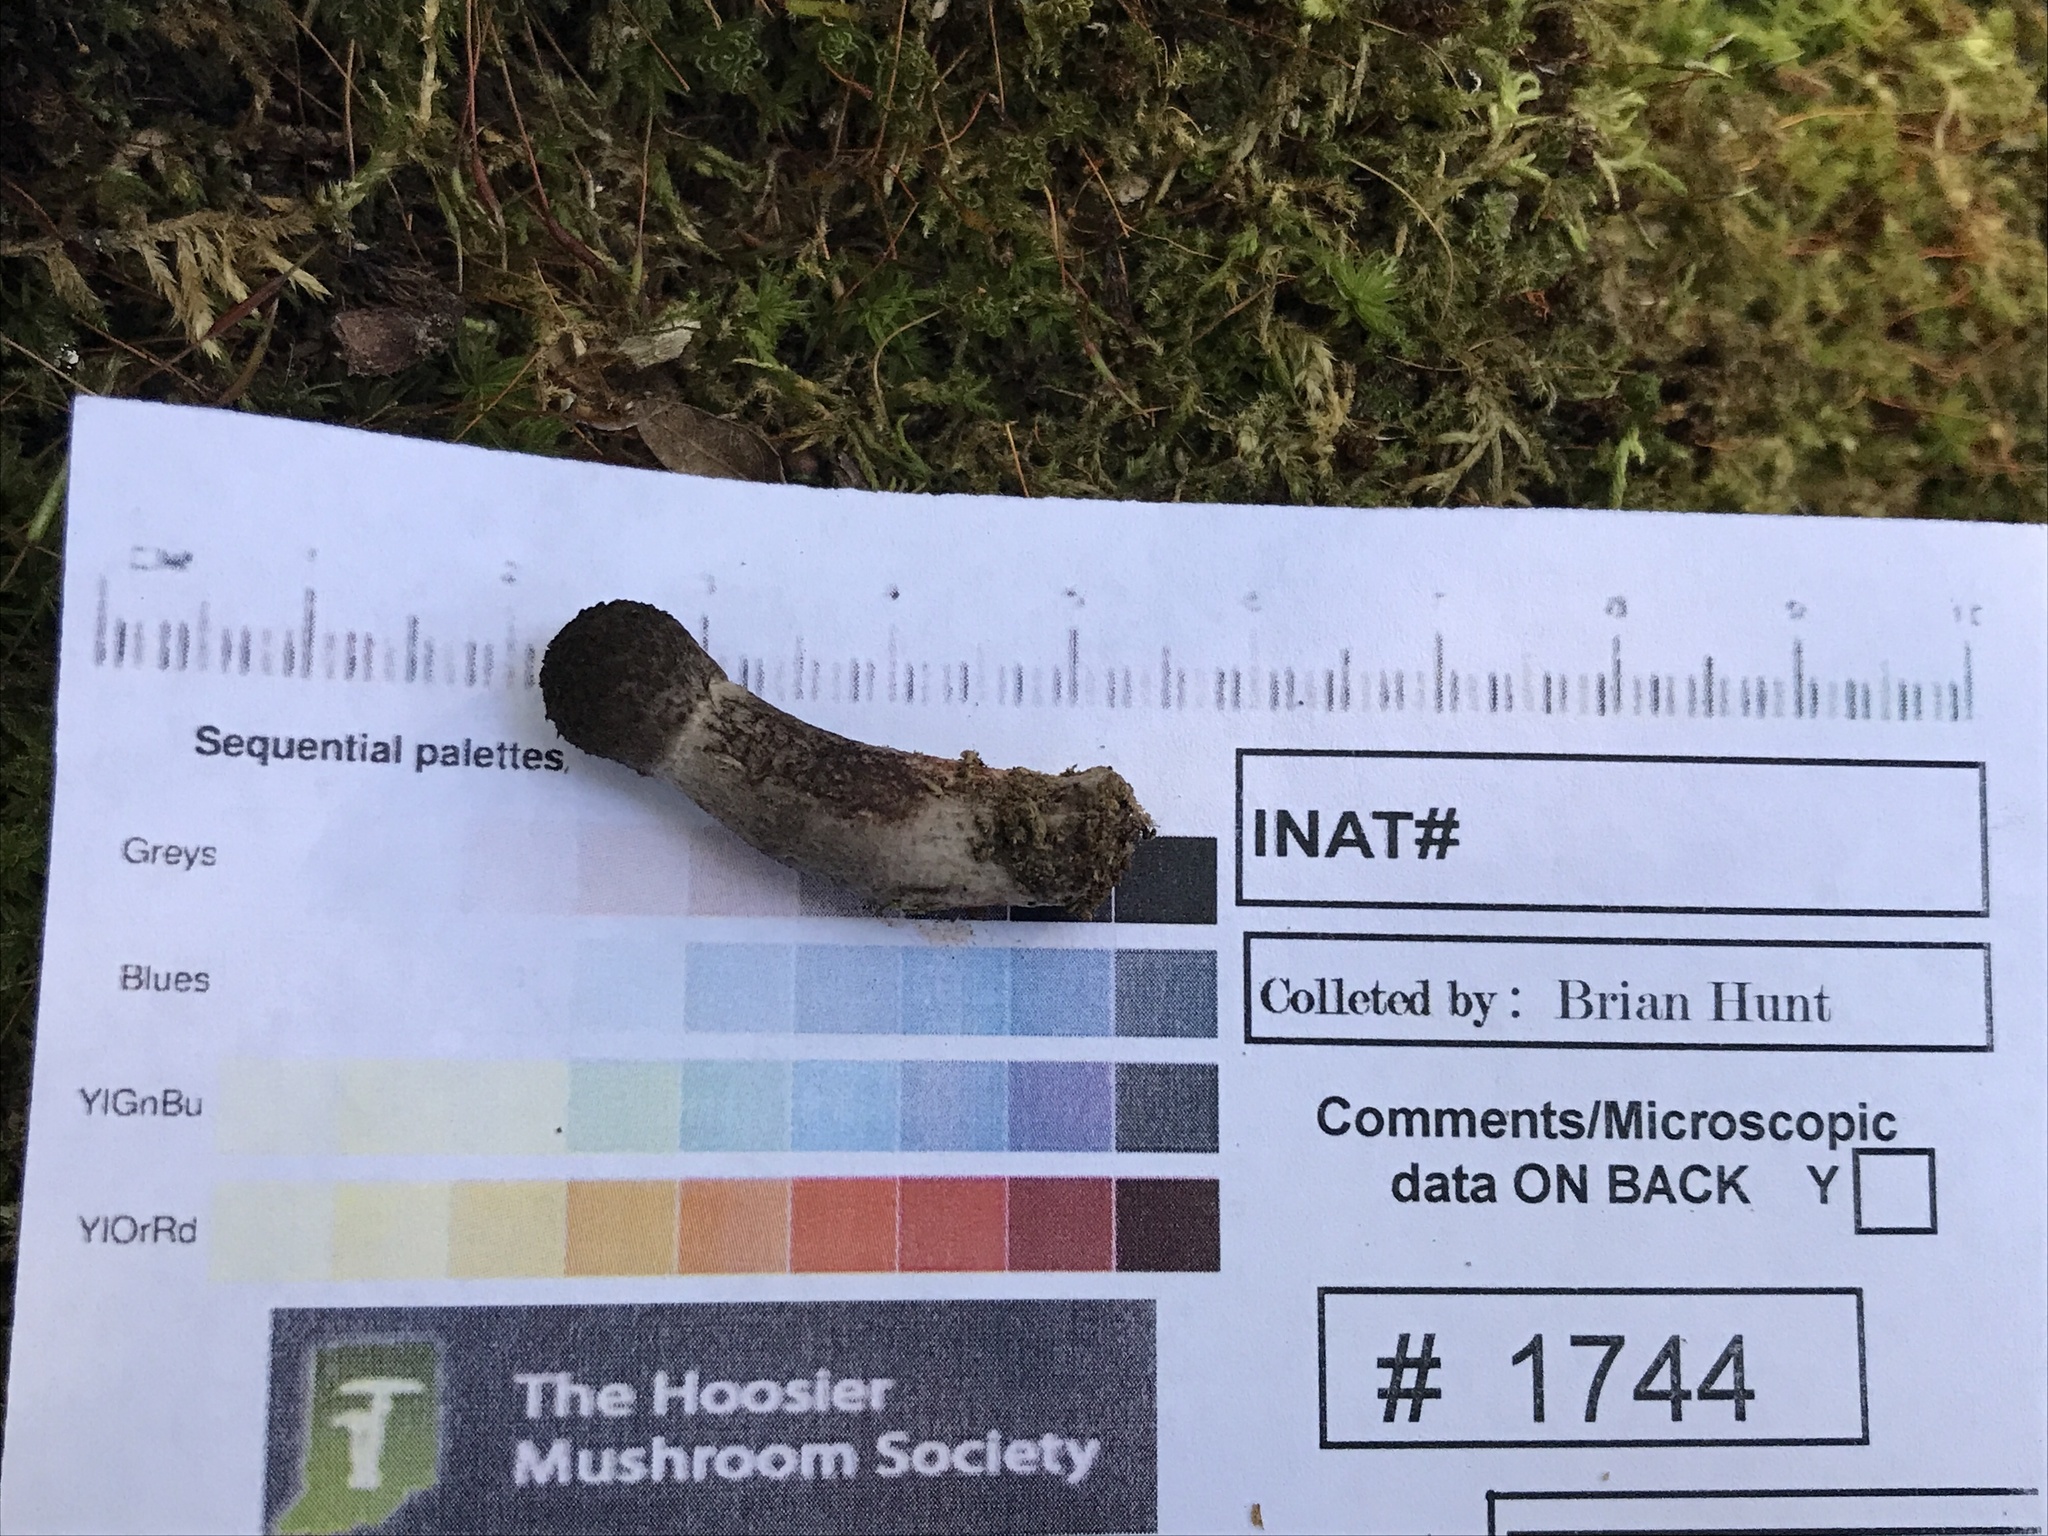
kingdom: Fungi
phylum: Basidiomycota
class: Agaricomycetes
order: Boletales
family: Boletaceae
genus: Strobilomyces
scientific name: Strobilomyces strobilaceus
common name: Old man of the woods
